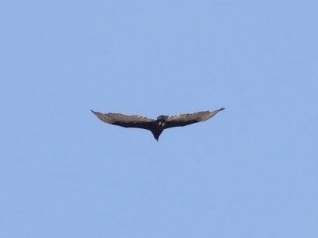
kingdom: Animalia
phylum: Chordata
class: Aves
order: Accipitriformes
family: Cathartidae
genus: Cathartes
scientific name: Cathartes aura
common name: Turkey vulture
